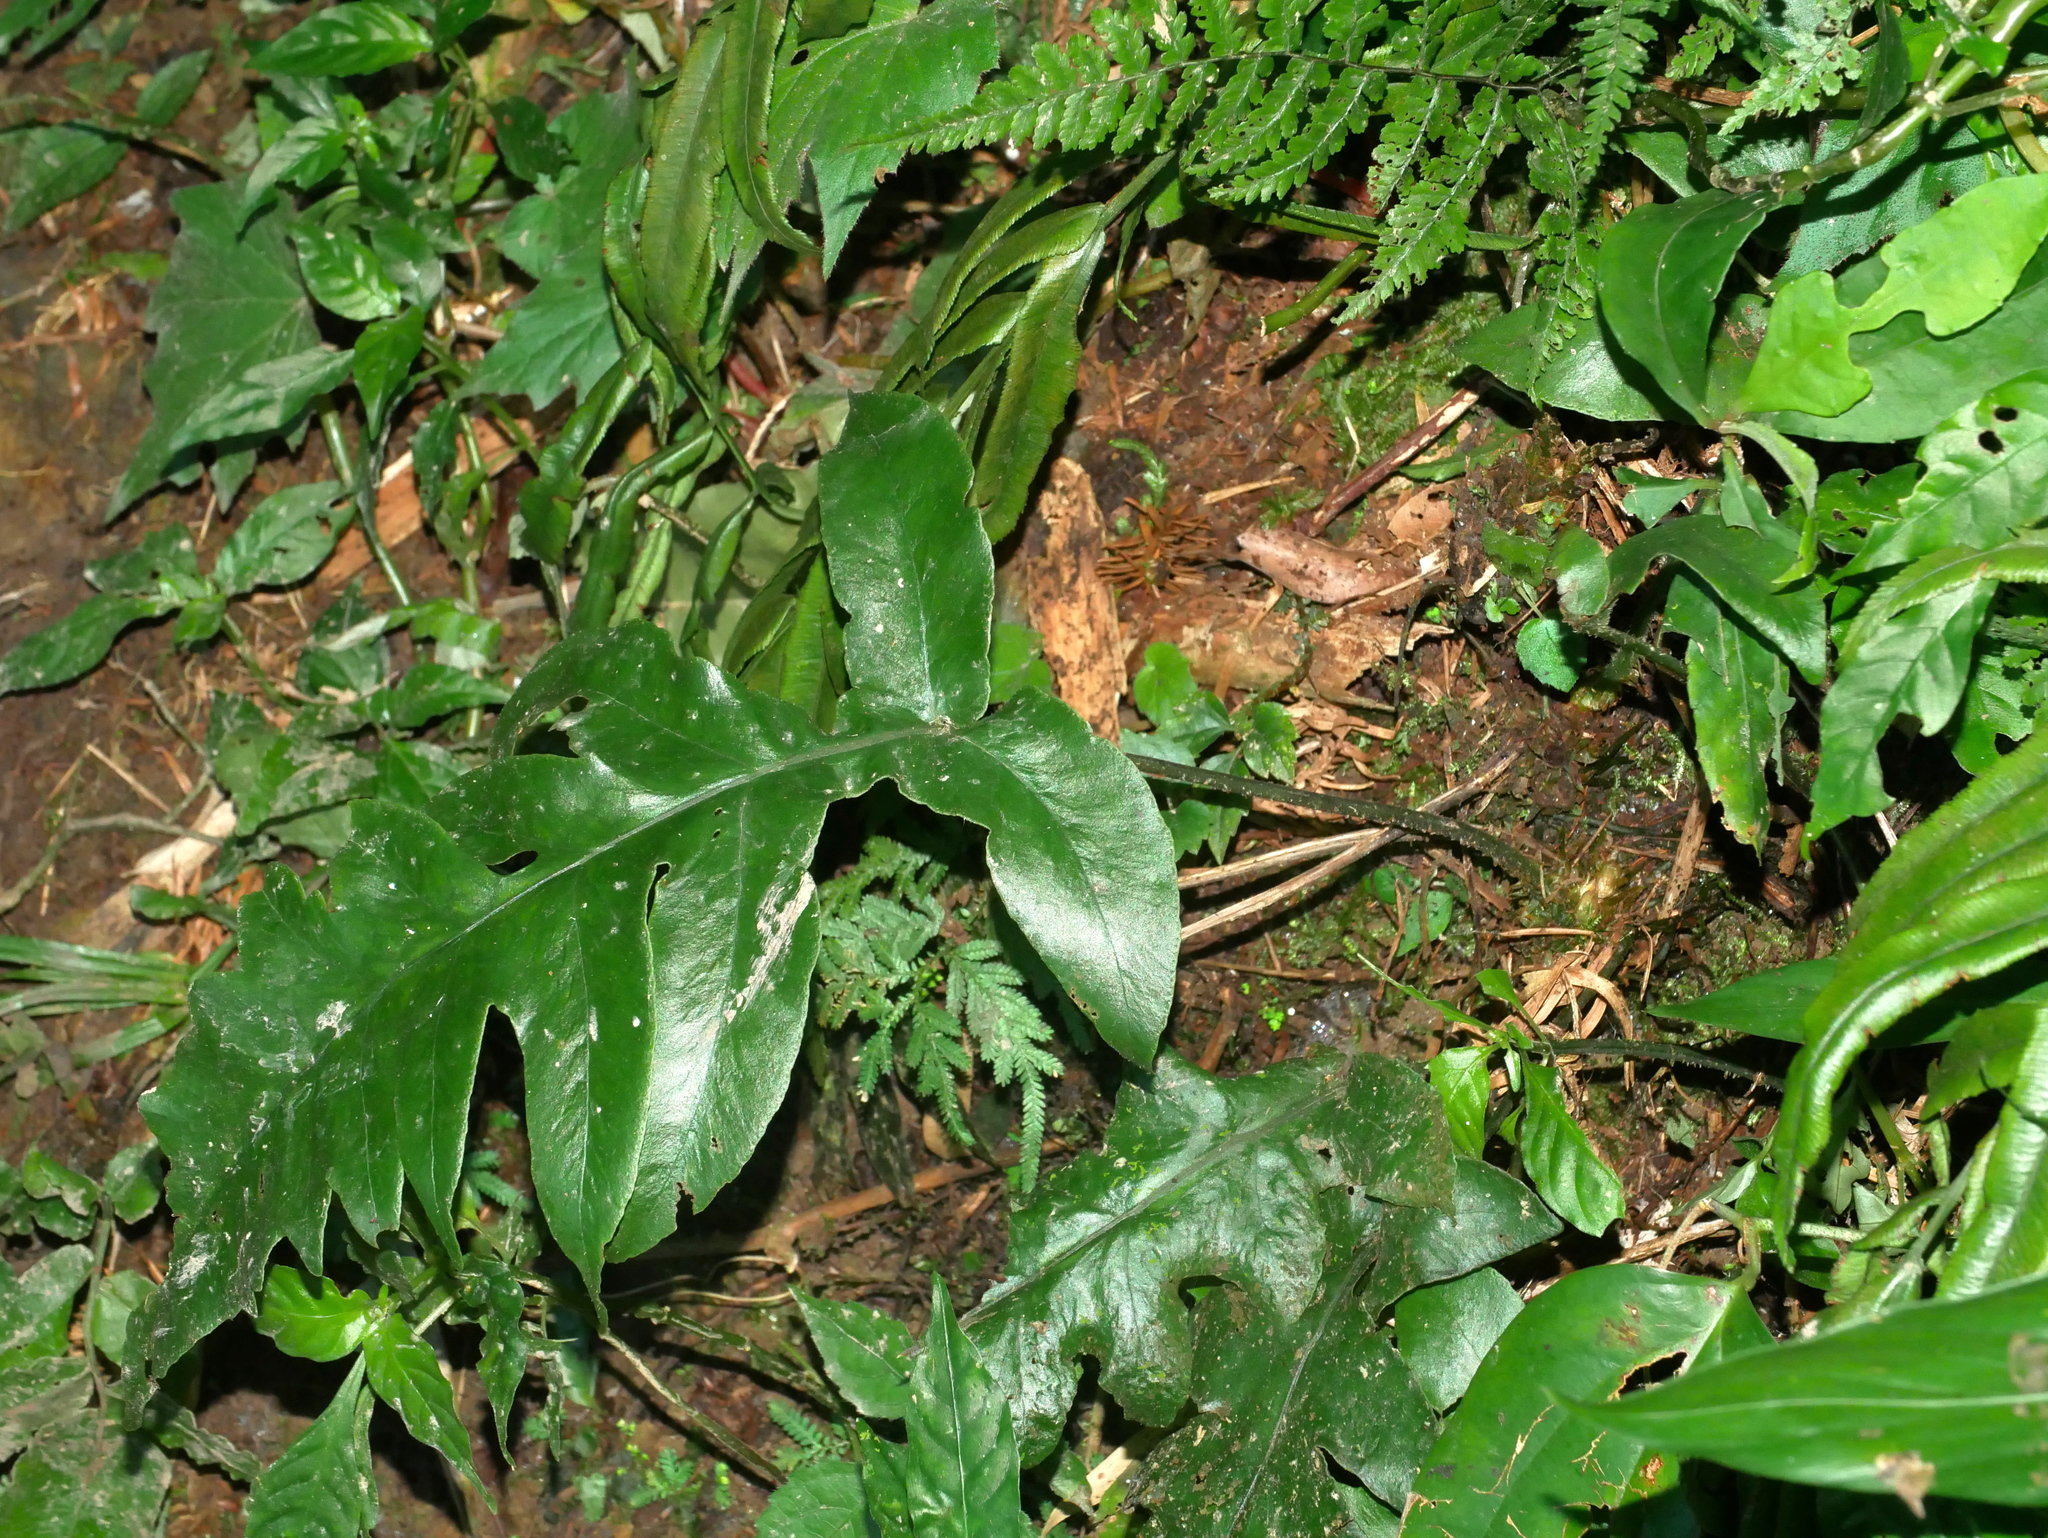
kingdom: Plantae
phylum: Tracheophyta
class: Polypodiopsida
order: Polypodiales
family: Athyriaceae
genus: Deparia
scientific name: Deparia formosana
